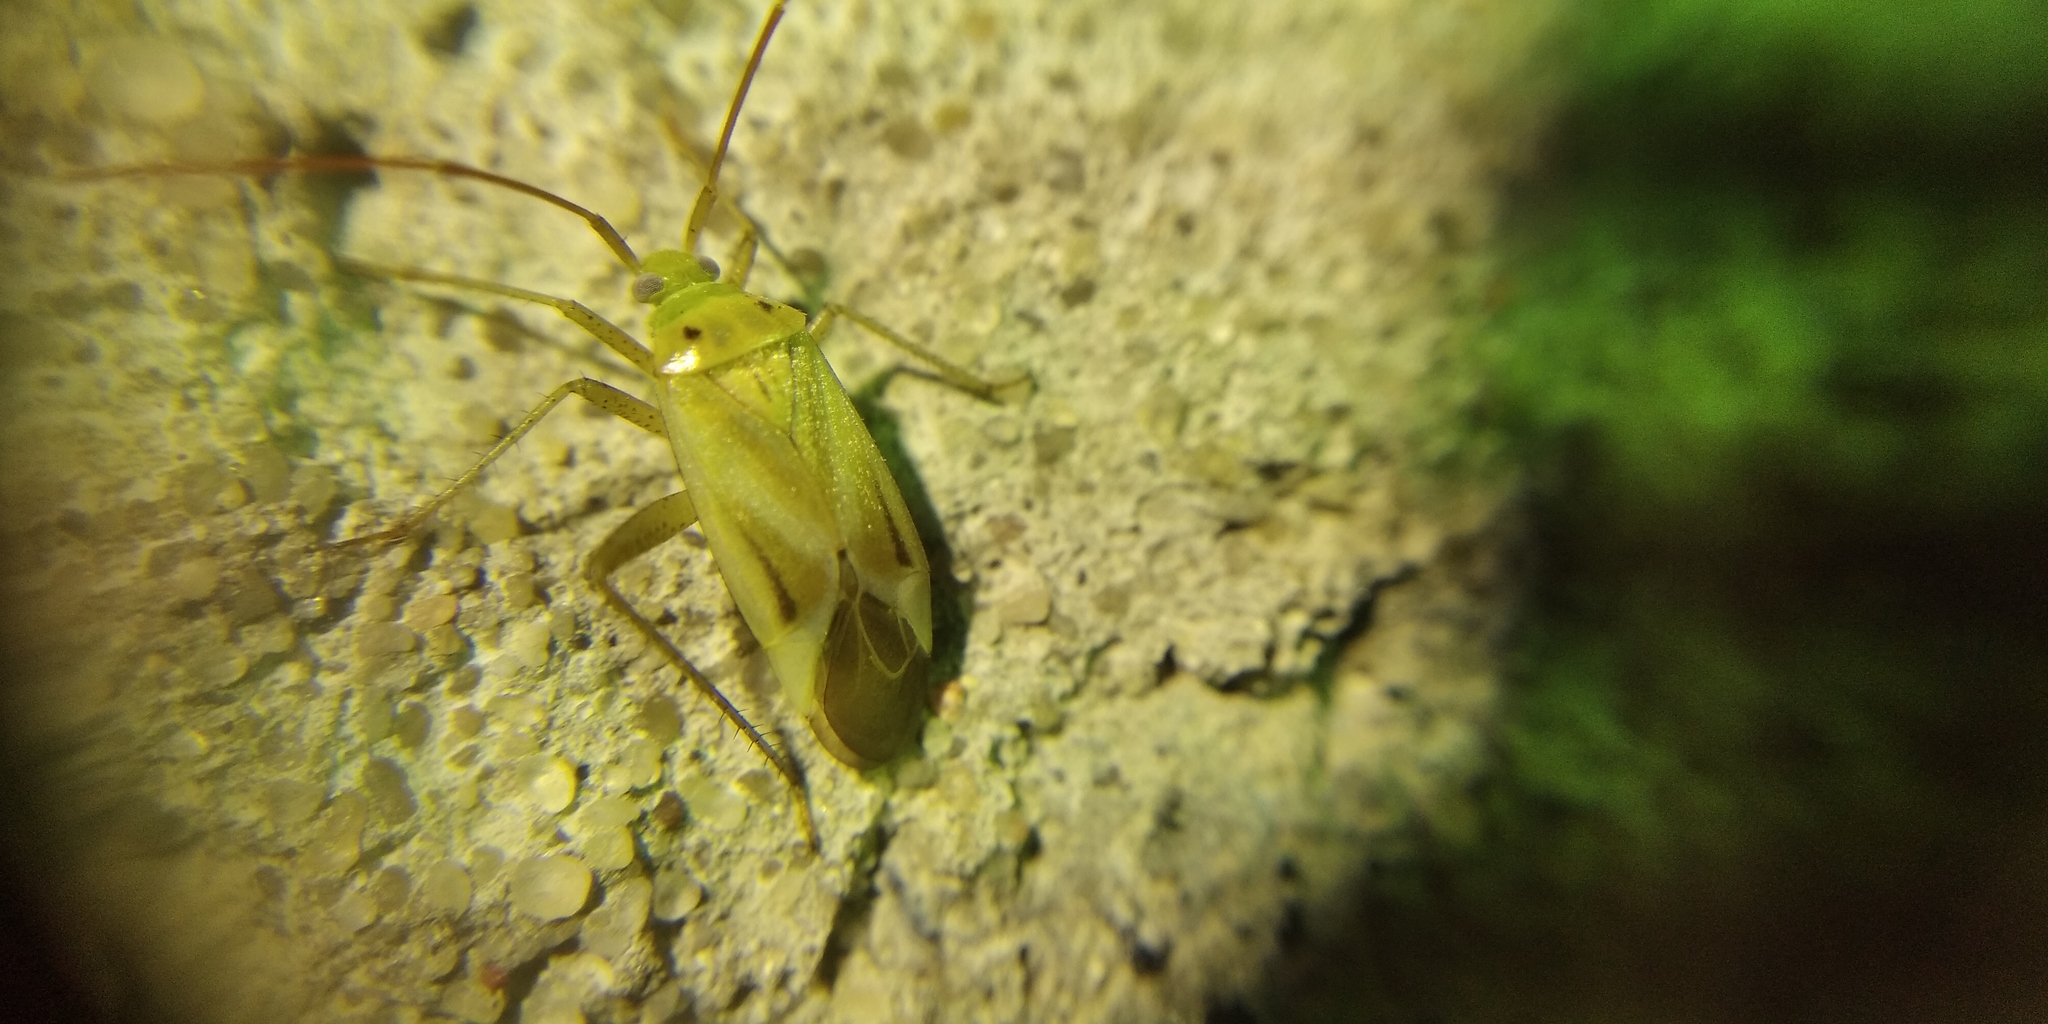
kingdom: Animalia
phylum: Arthropoda
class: Insecta
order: Hemiptera
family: Miridae
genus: Adelphocoris
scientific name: Adelphocoris lineolatus
